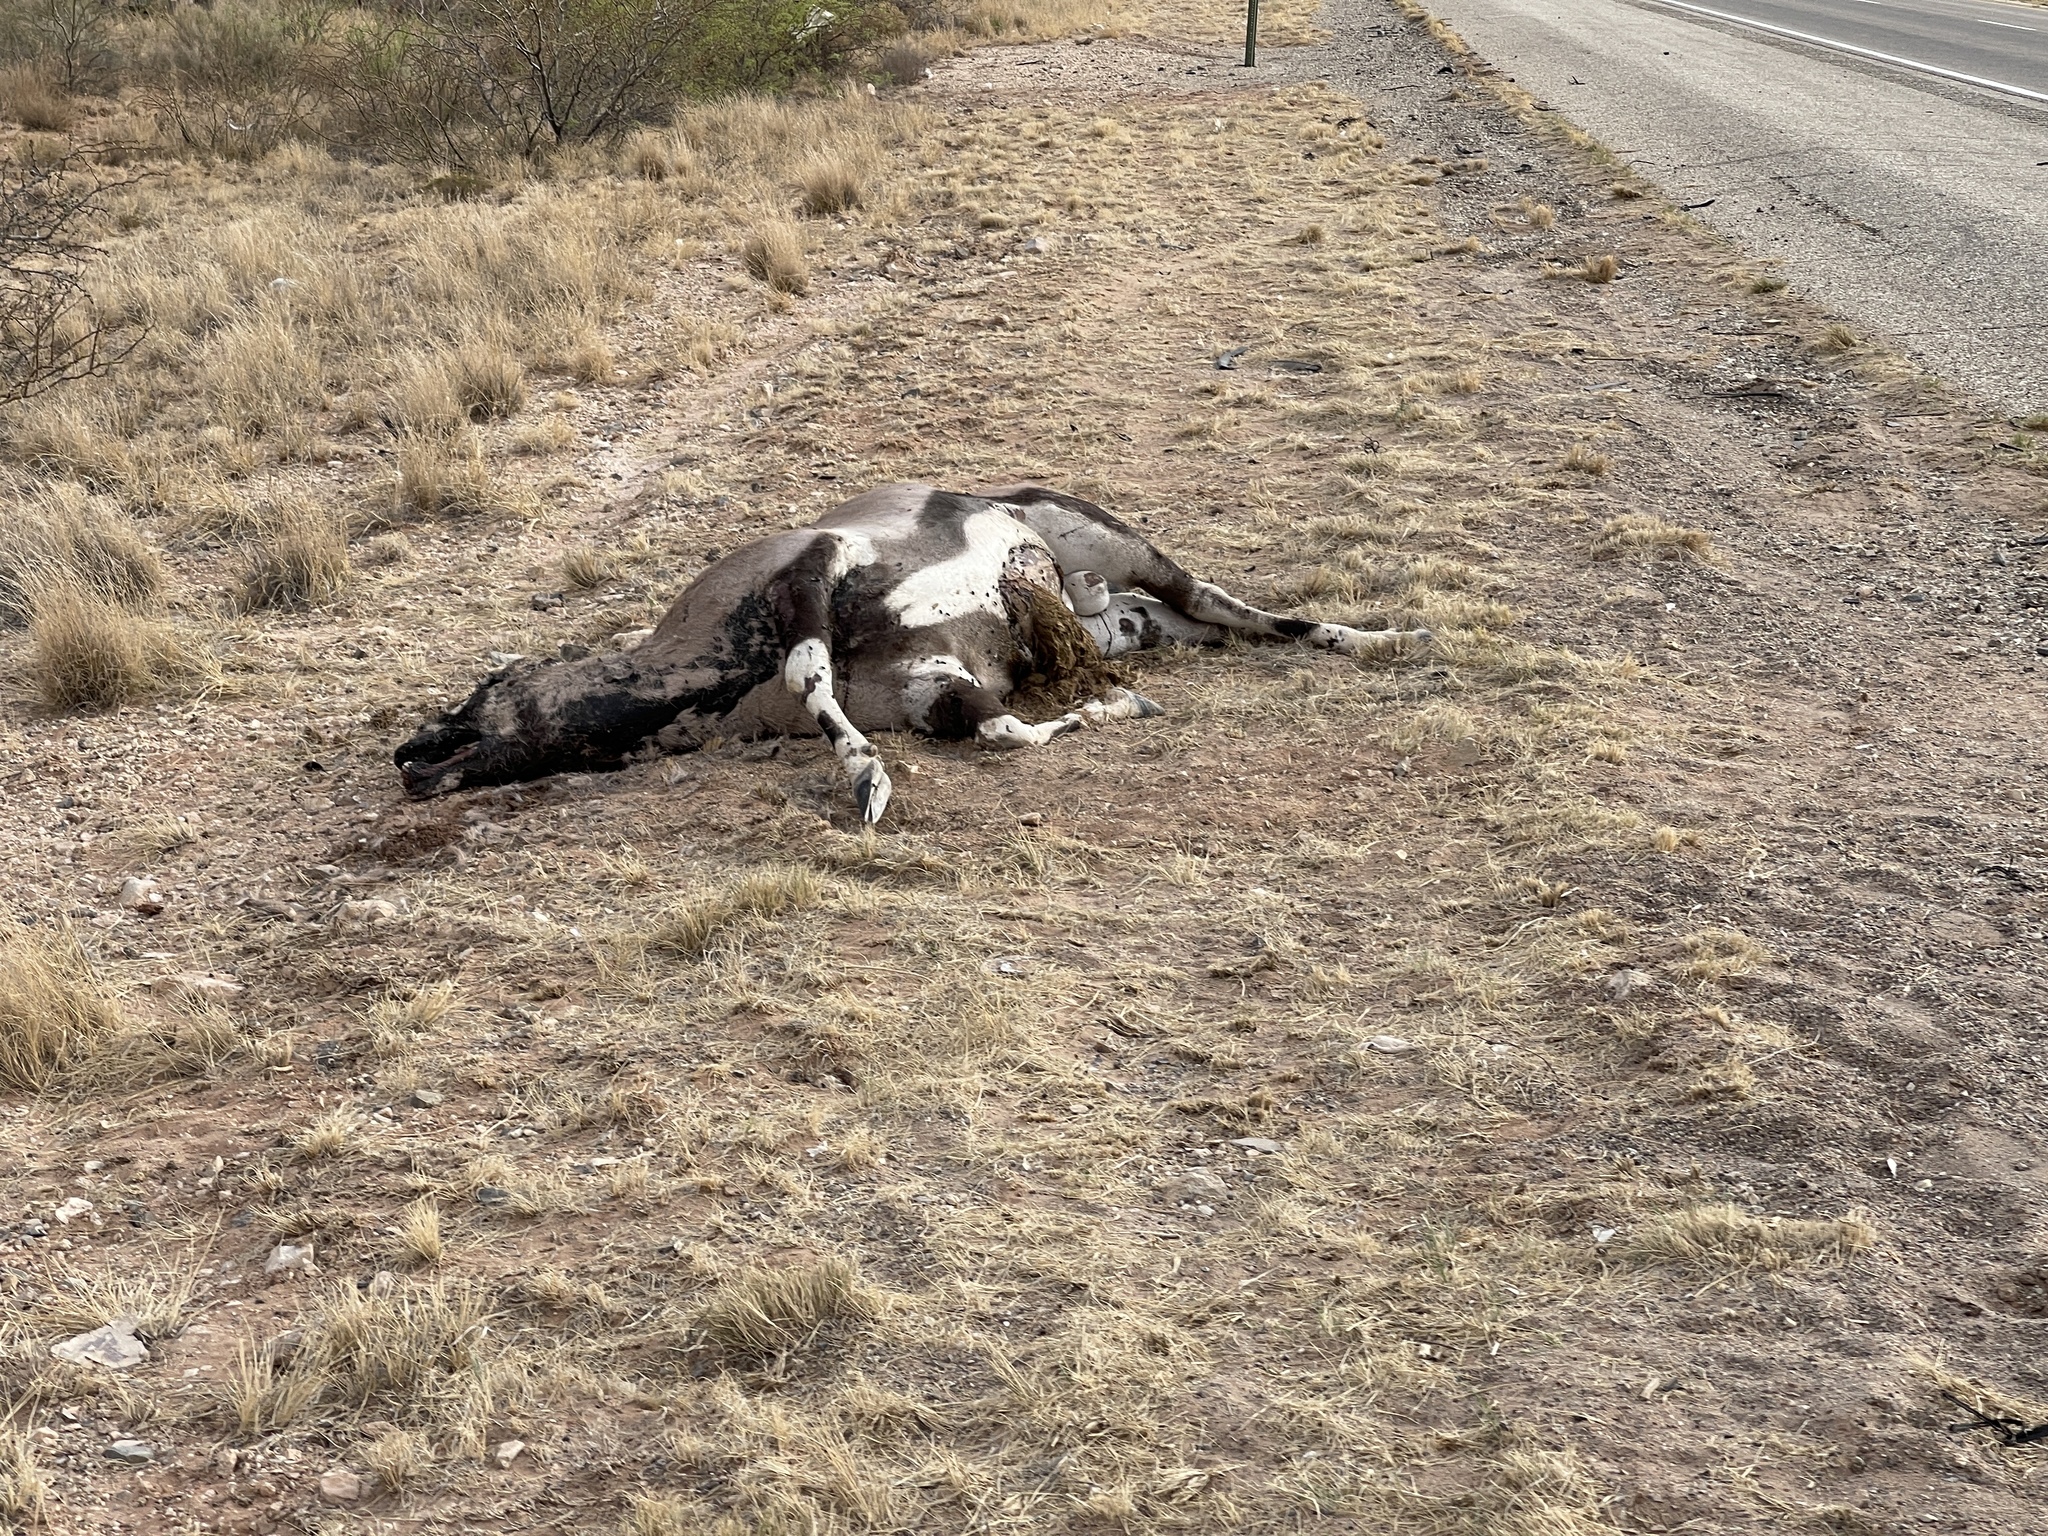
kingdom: Animalia
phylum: Chordata
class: Mammalia
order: Artiodactyla
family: Bovidae
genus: Oryx
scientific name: Oryx gazella
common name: Gemsbok
